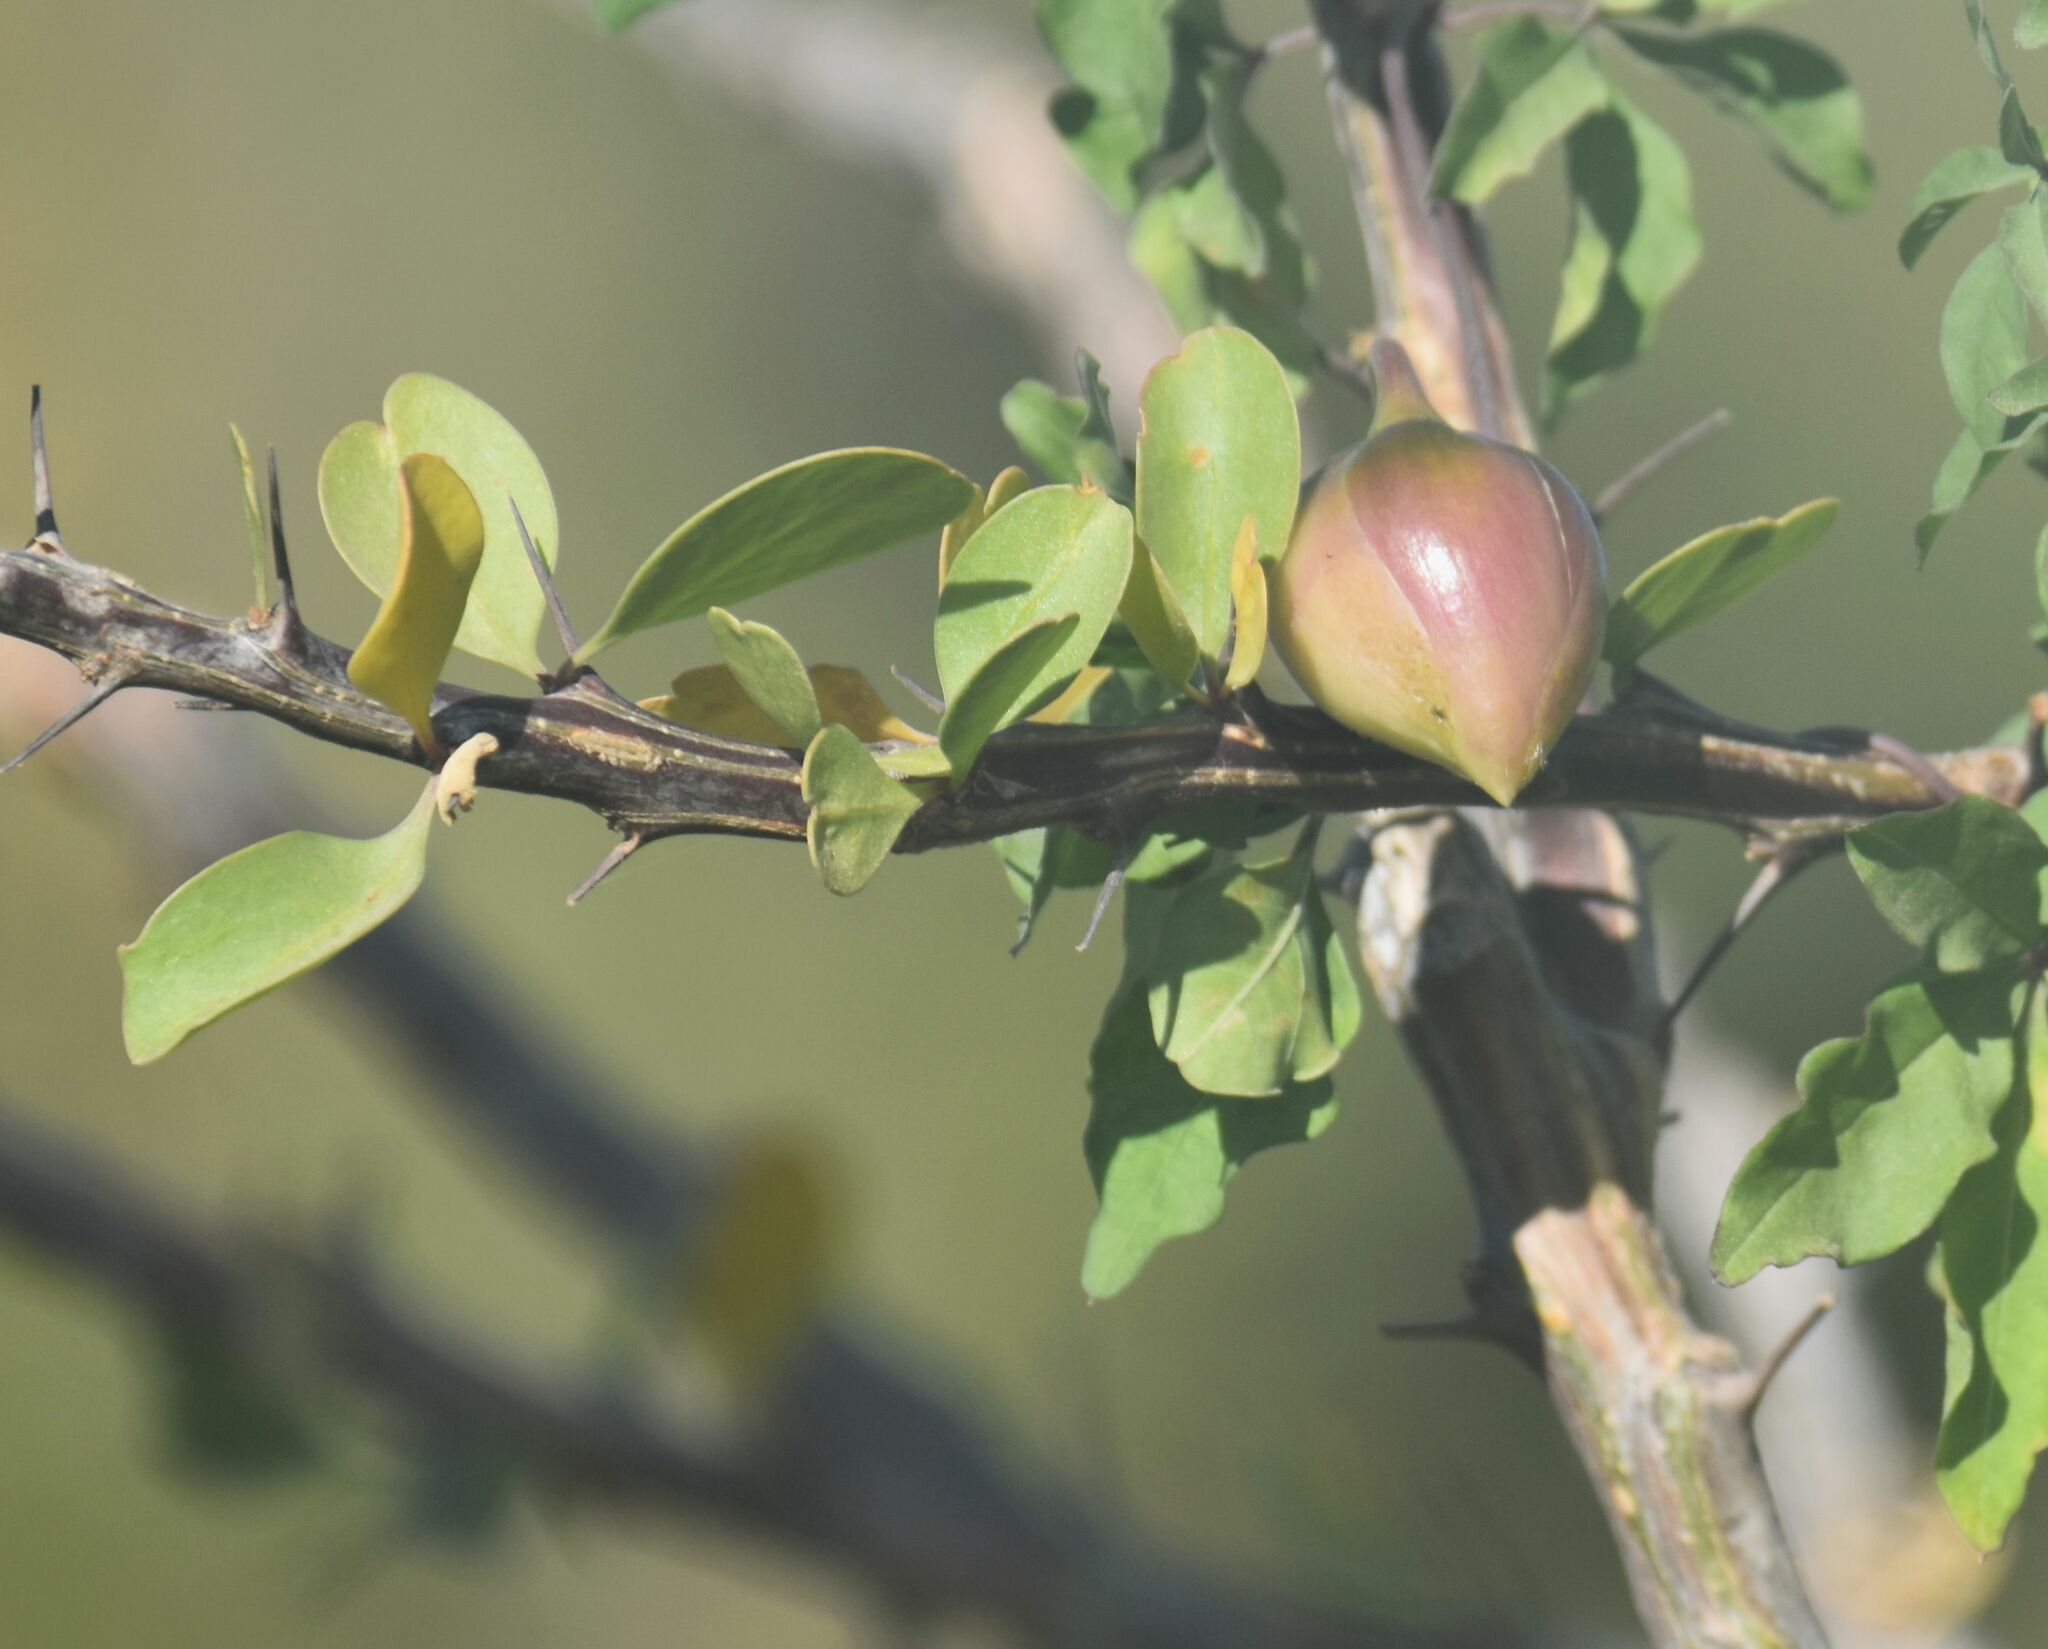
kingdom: Plantae
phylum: Tracheophyta
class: Magnoliopsida
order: Ericales
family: Fouquieriaceae
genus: Fouquieria
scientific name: Fouquieria diguetii
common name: Adam's tree
